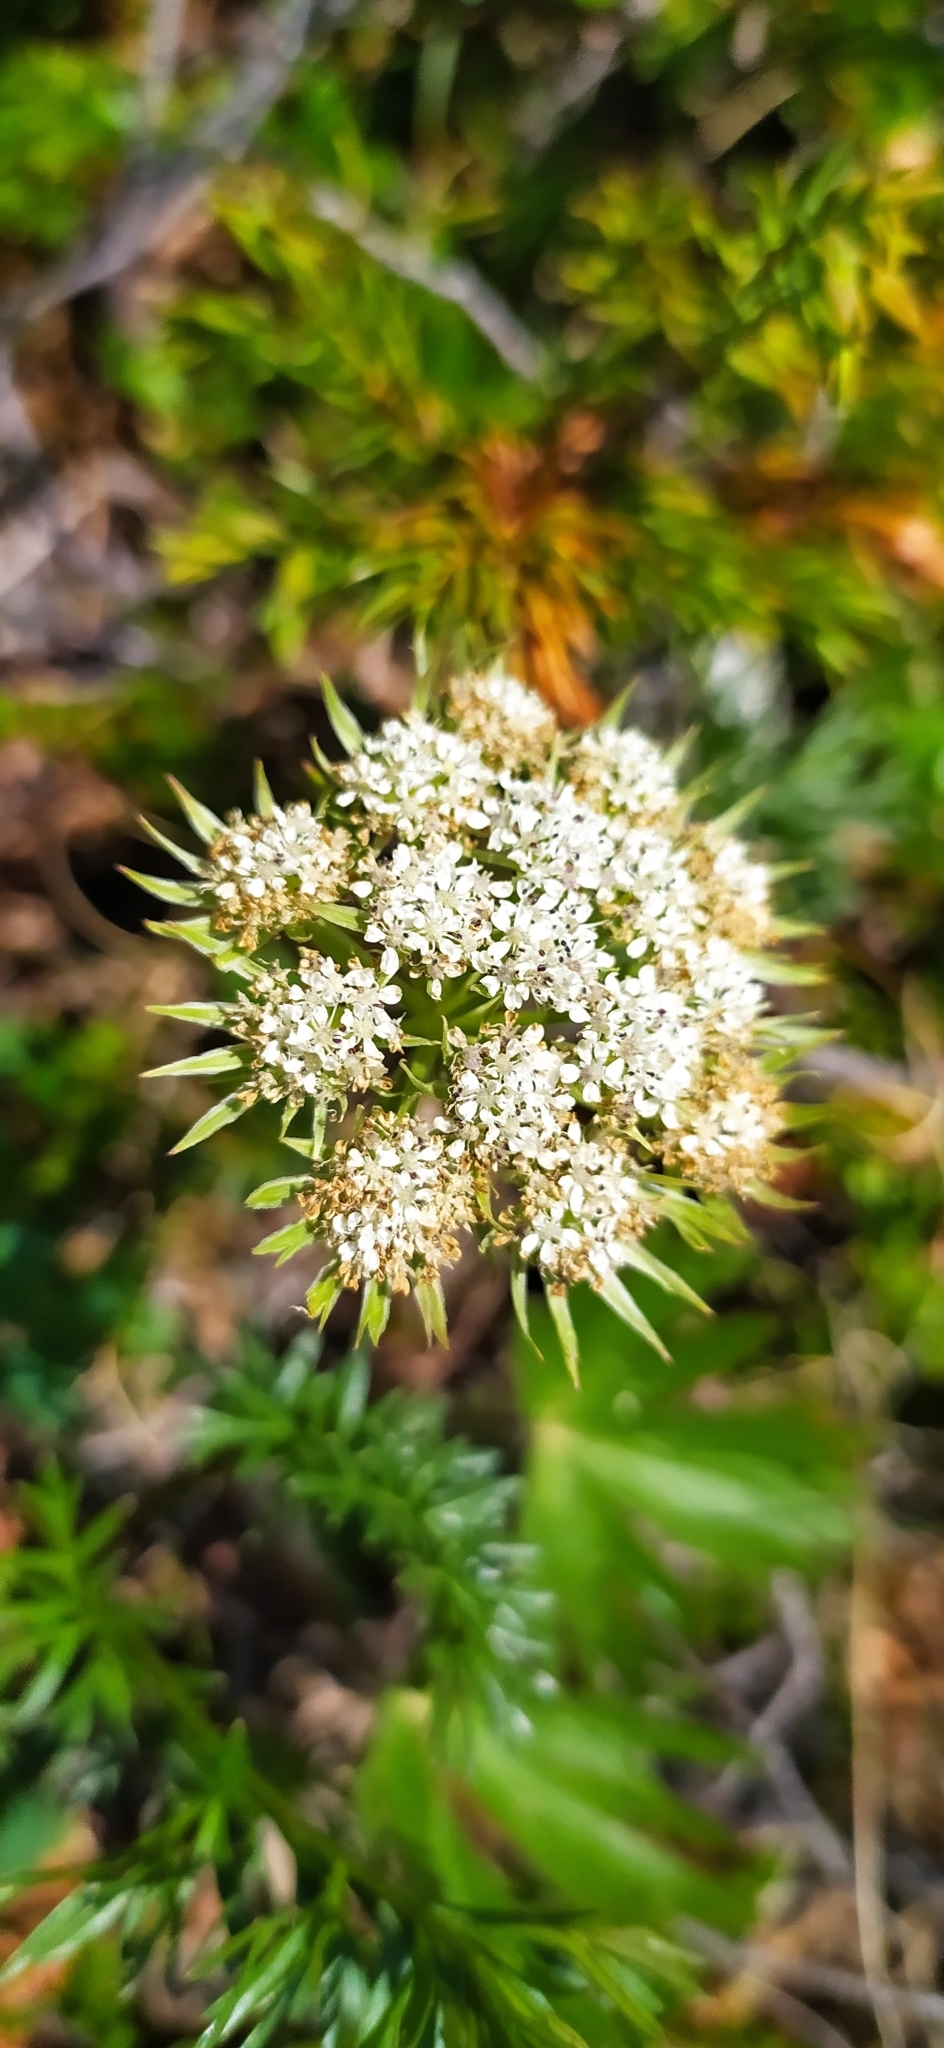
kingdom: Plantae
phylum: Tracheophyta
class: Magnoliopsida
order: Apiales
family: Apiaceae
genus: Pachypleurum
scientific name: Pachypleurum mutellinoides
